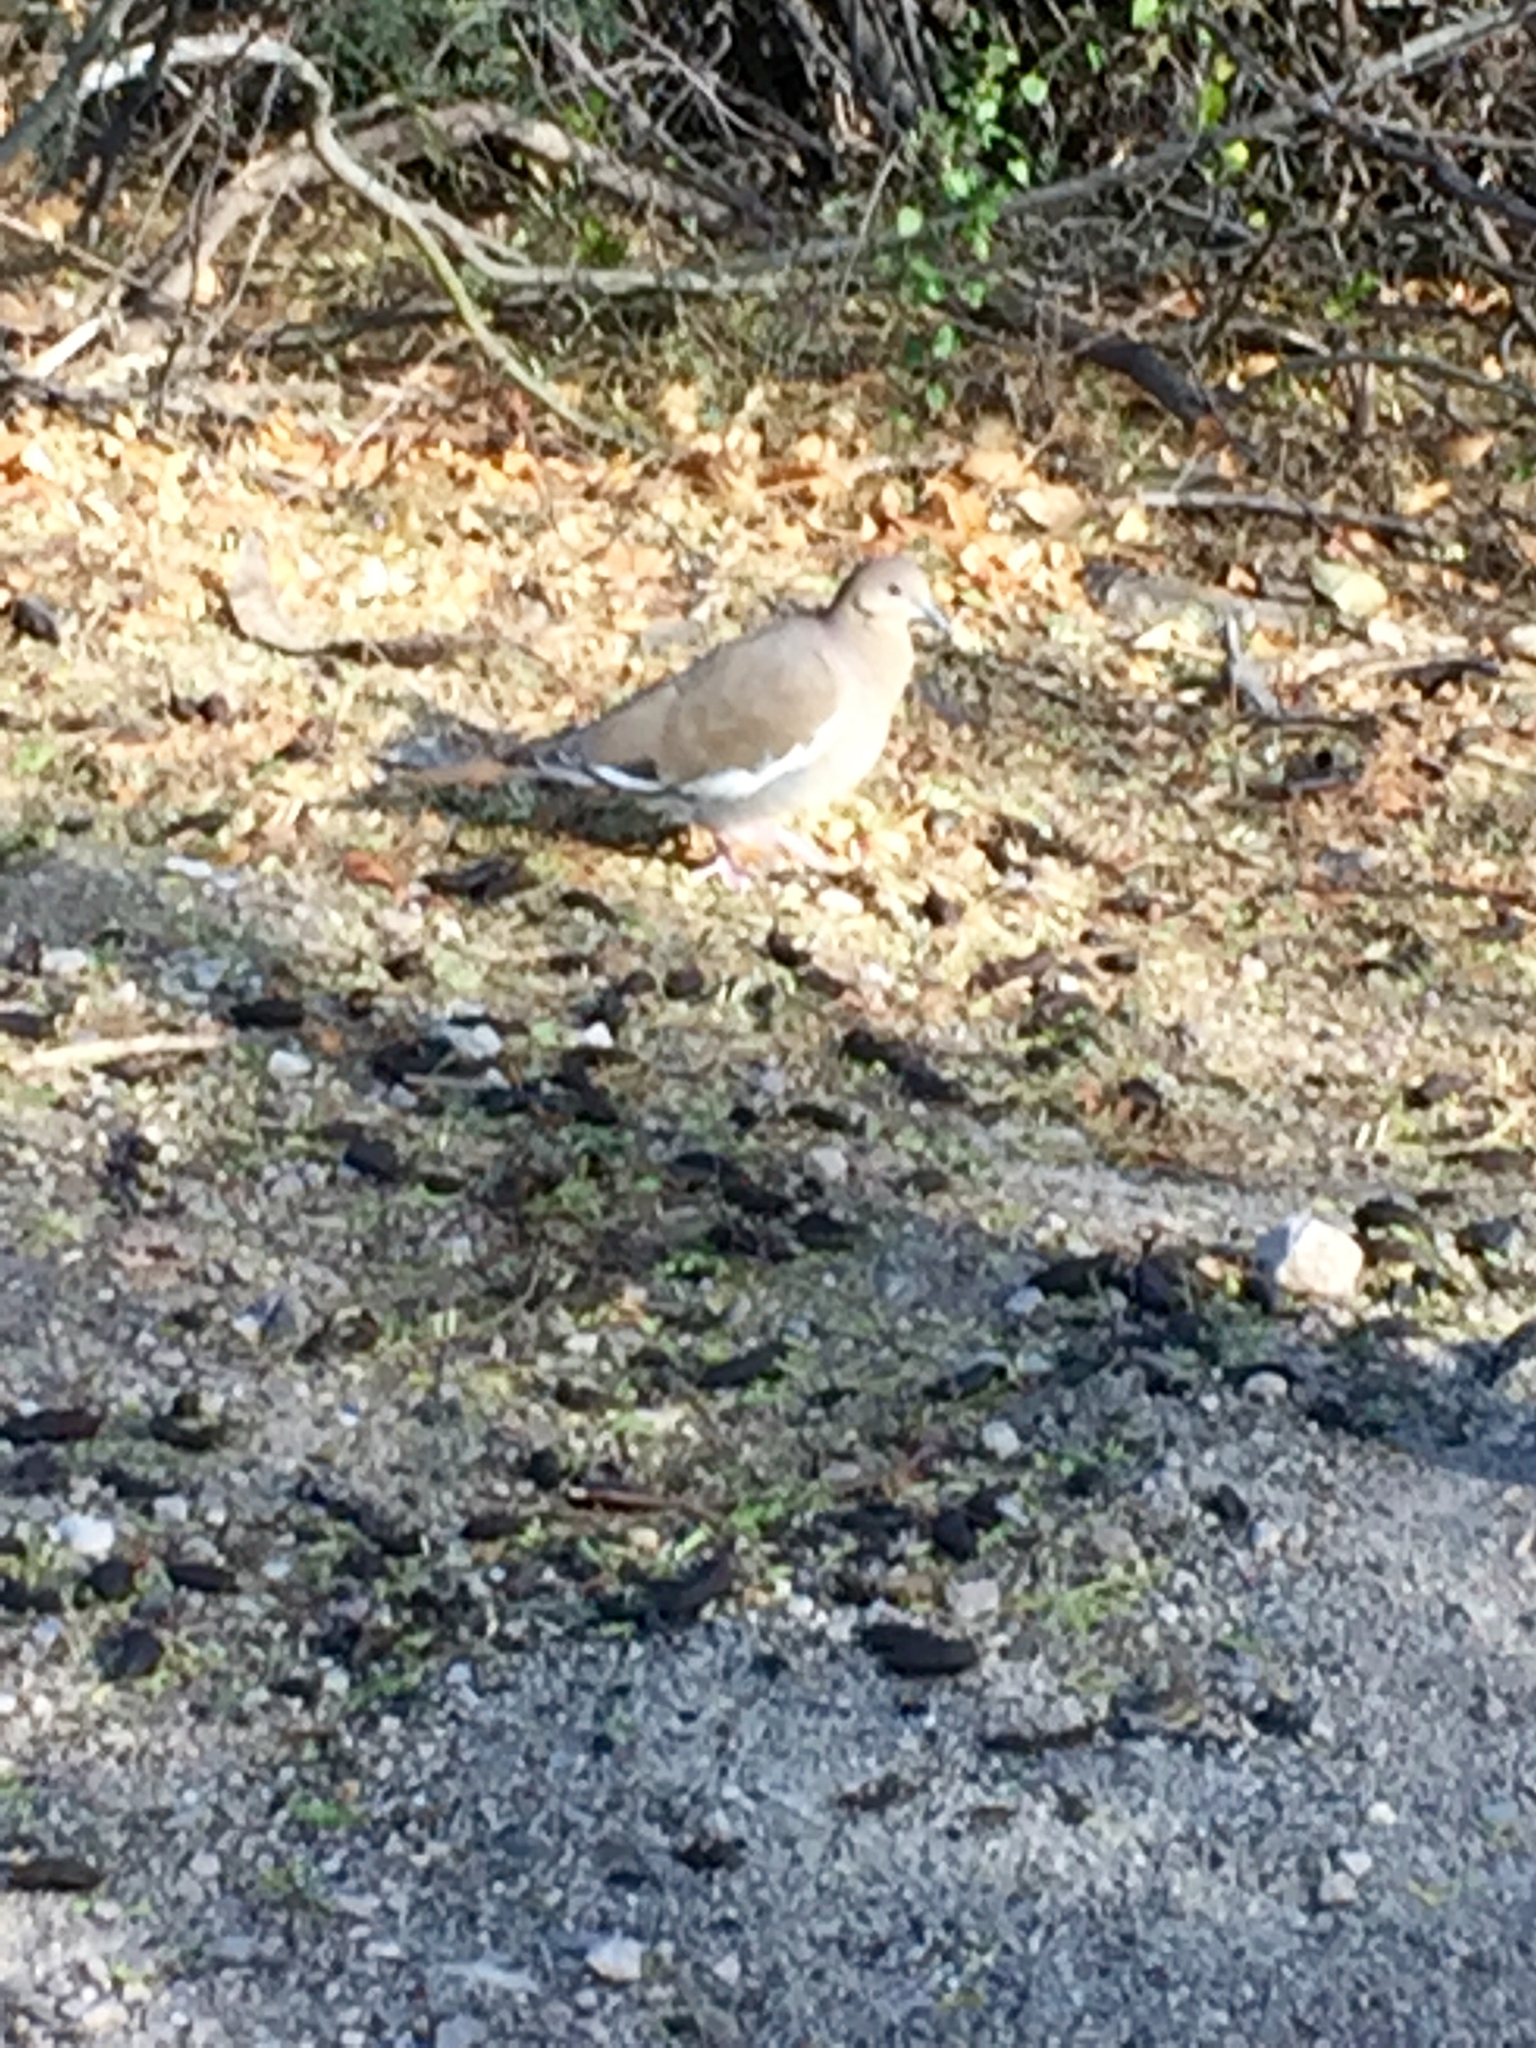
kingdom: Animalia
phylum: Chordata
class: Aves
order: Columbiformes
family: Columbidae
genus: Zenaida
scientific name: Zenaida asiatica
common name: White-winged dove
